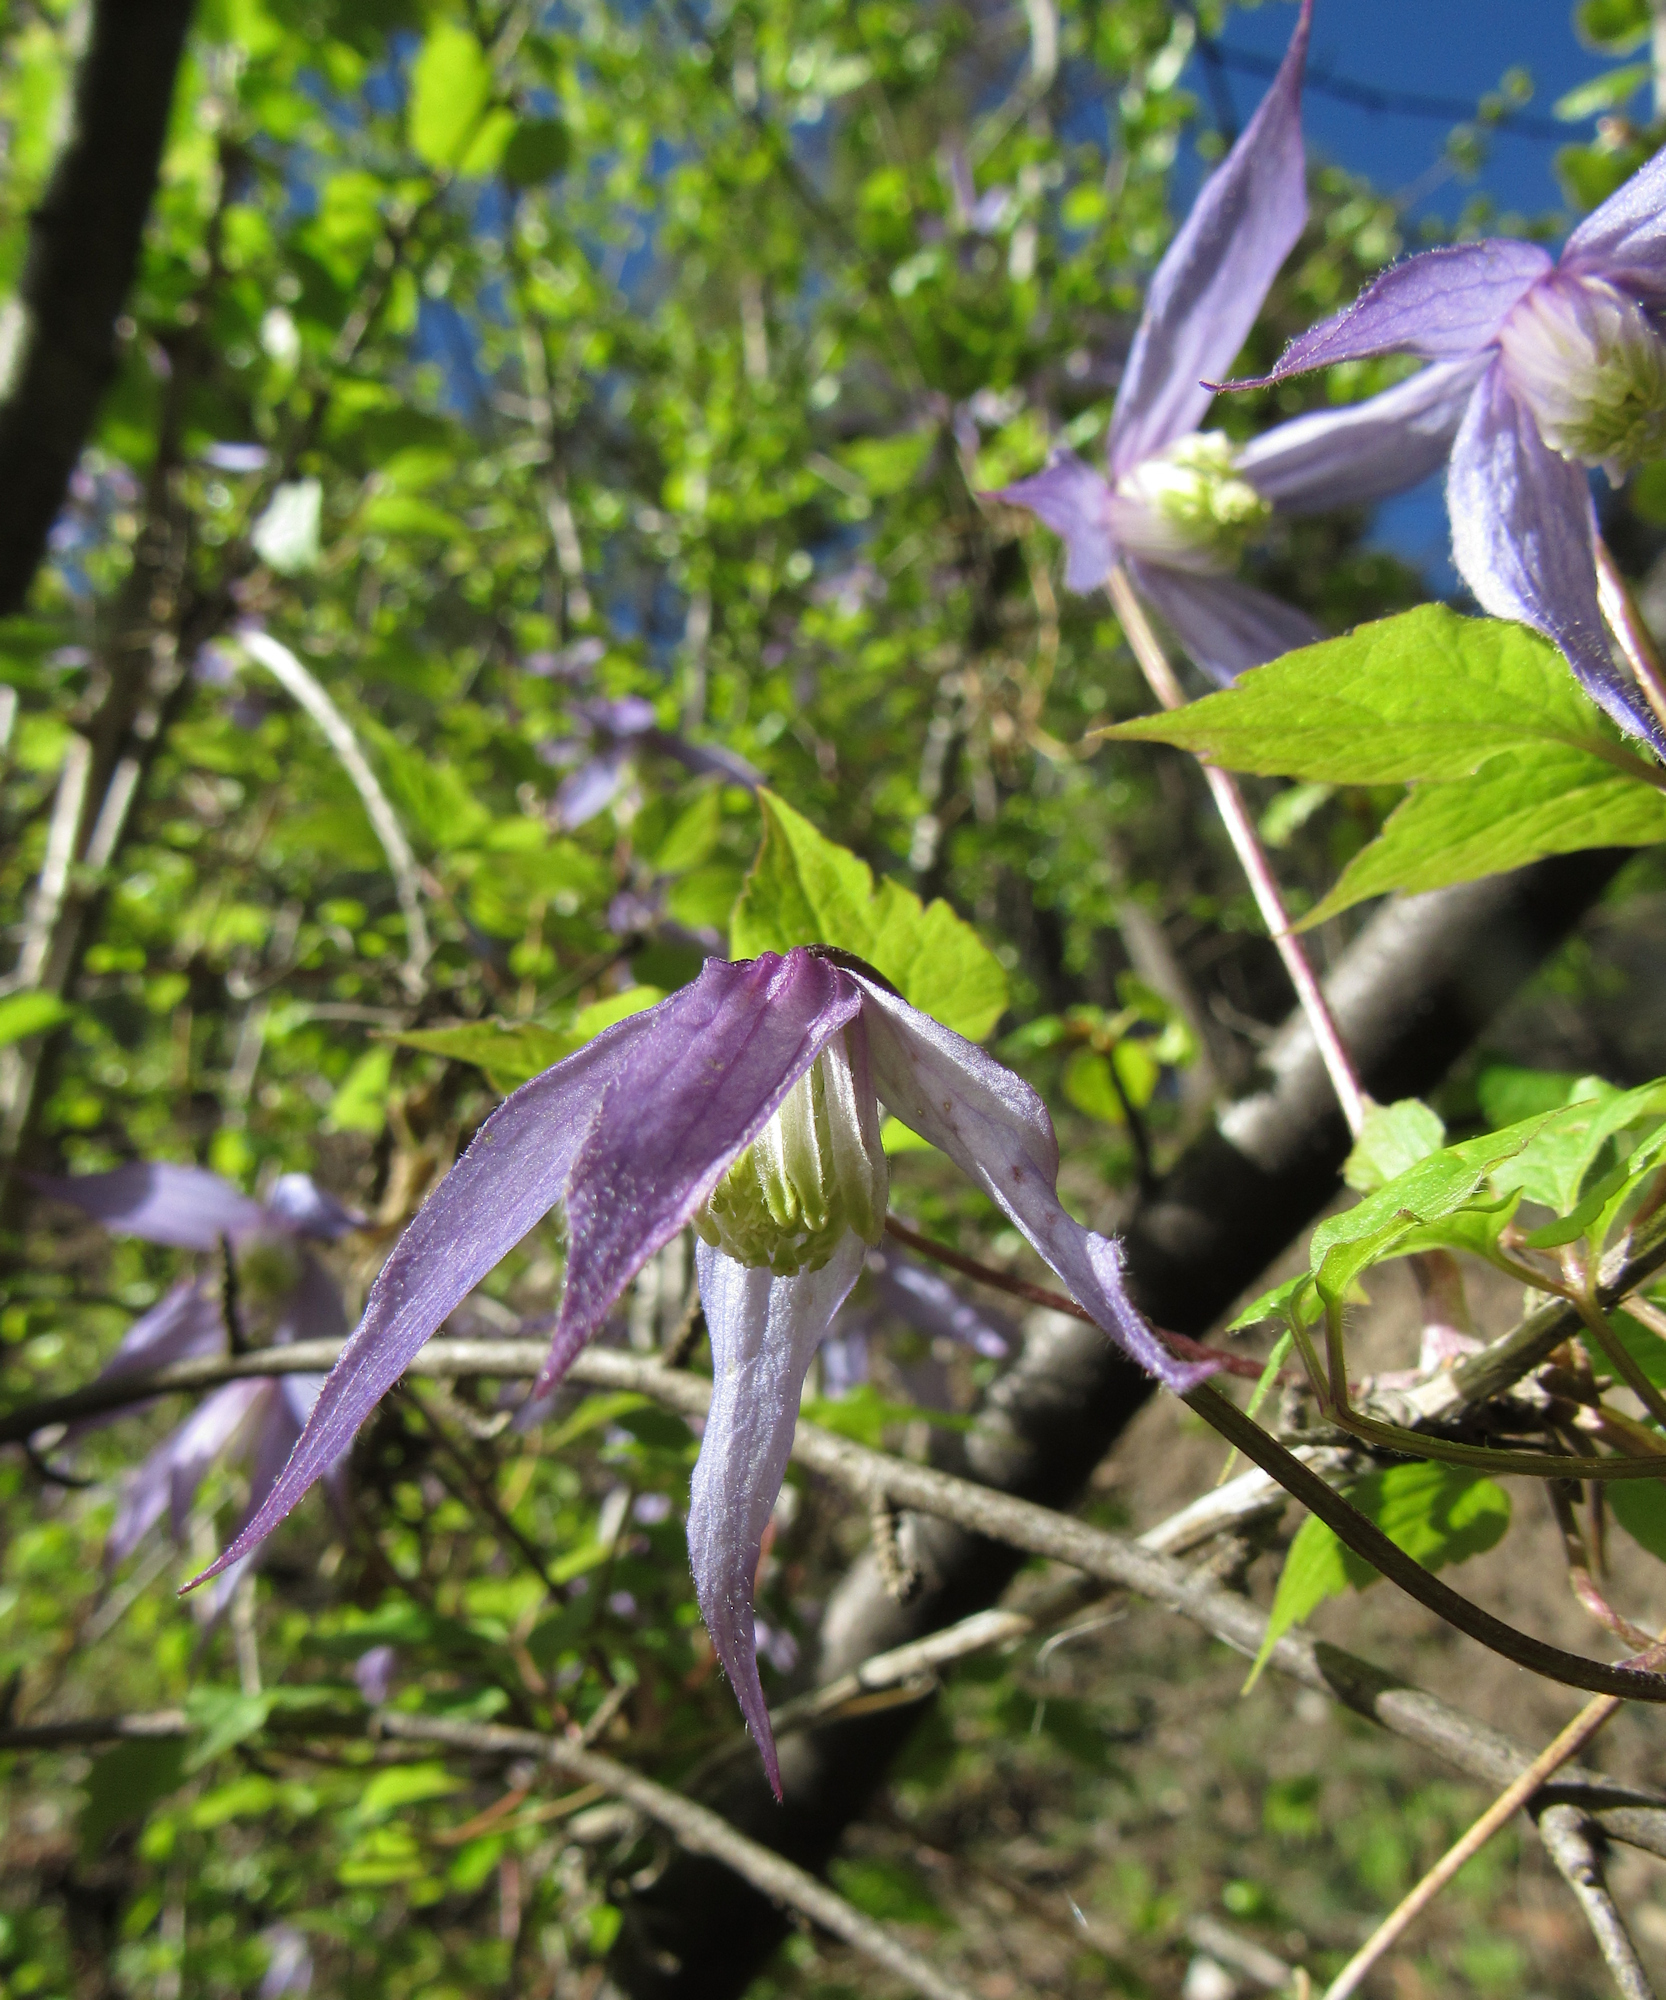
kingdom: Plantae
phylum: Tracheophyta
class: Magnoliopsida
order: Ranunculales
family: Ranunculaceae
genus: Clematis
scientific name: Clematis occidentalis
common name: Purple clematis
